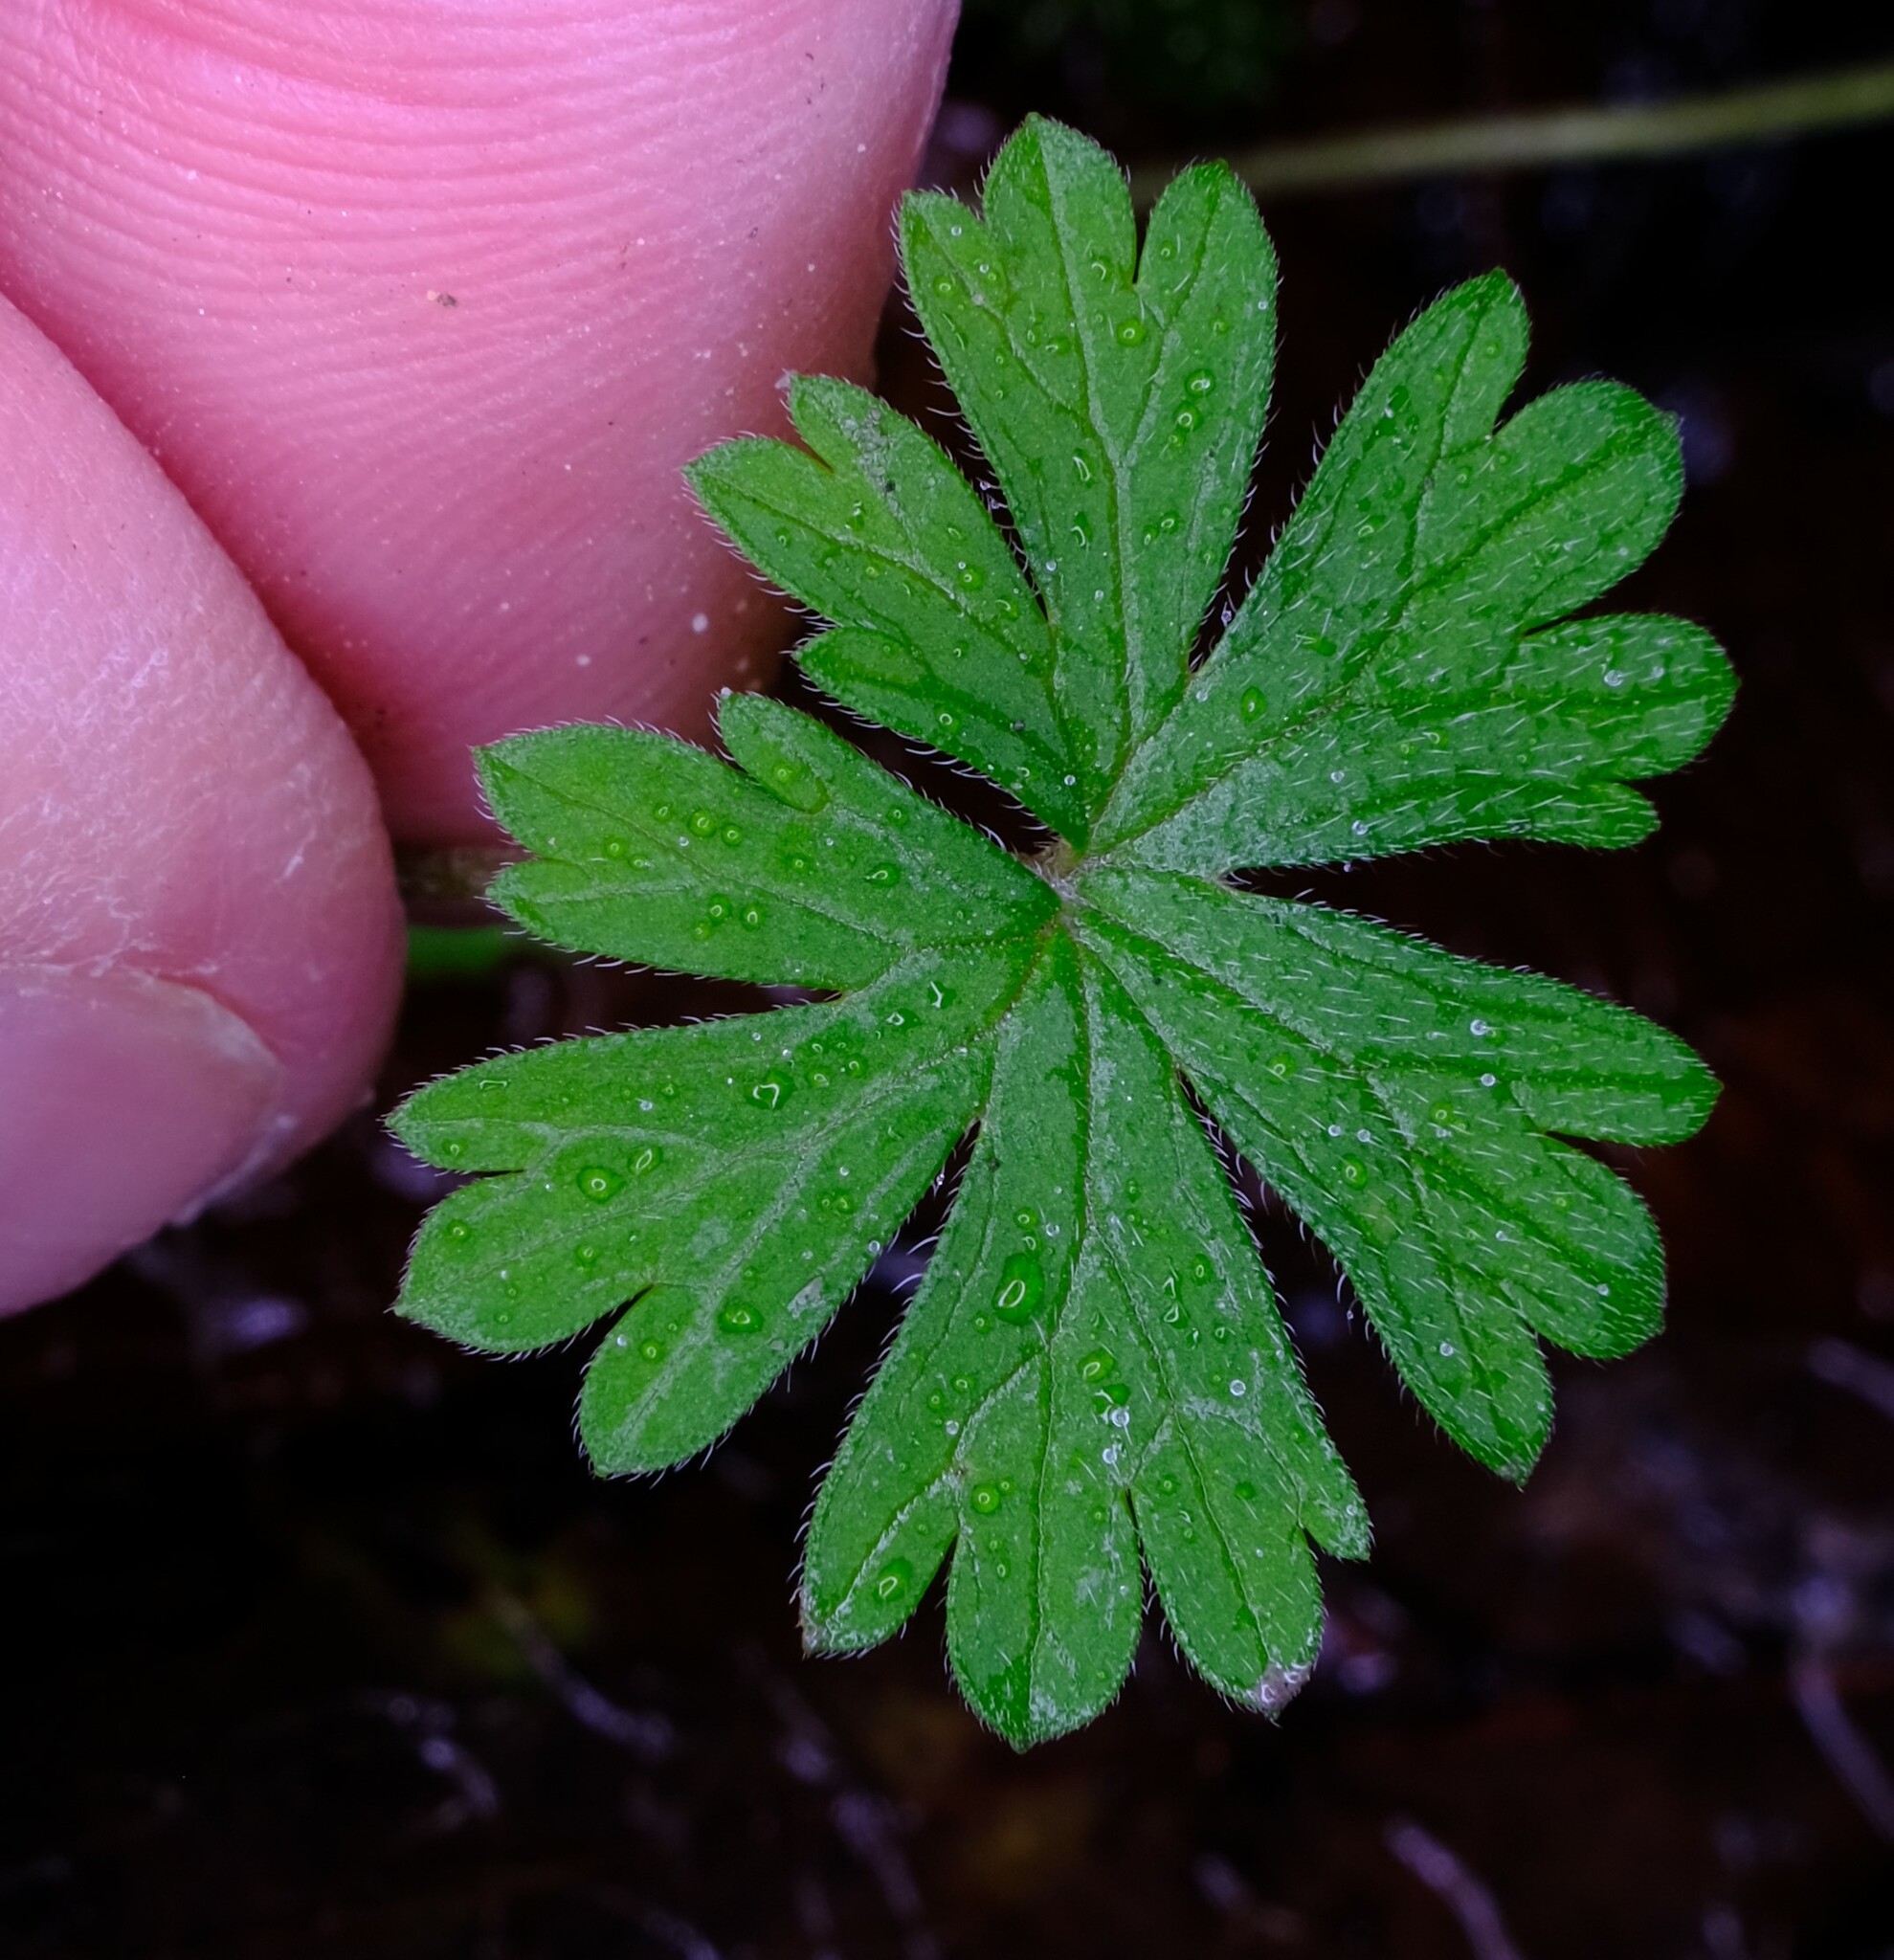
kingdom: Plantae
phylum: Tracheophyta
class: Magnoliopsida
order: Geraniales
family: Geraniaceae
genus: Geranium
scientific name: Geranium potentilloides
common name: Cinquefoil geranium
